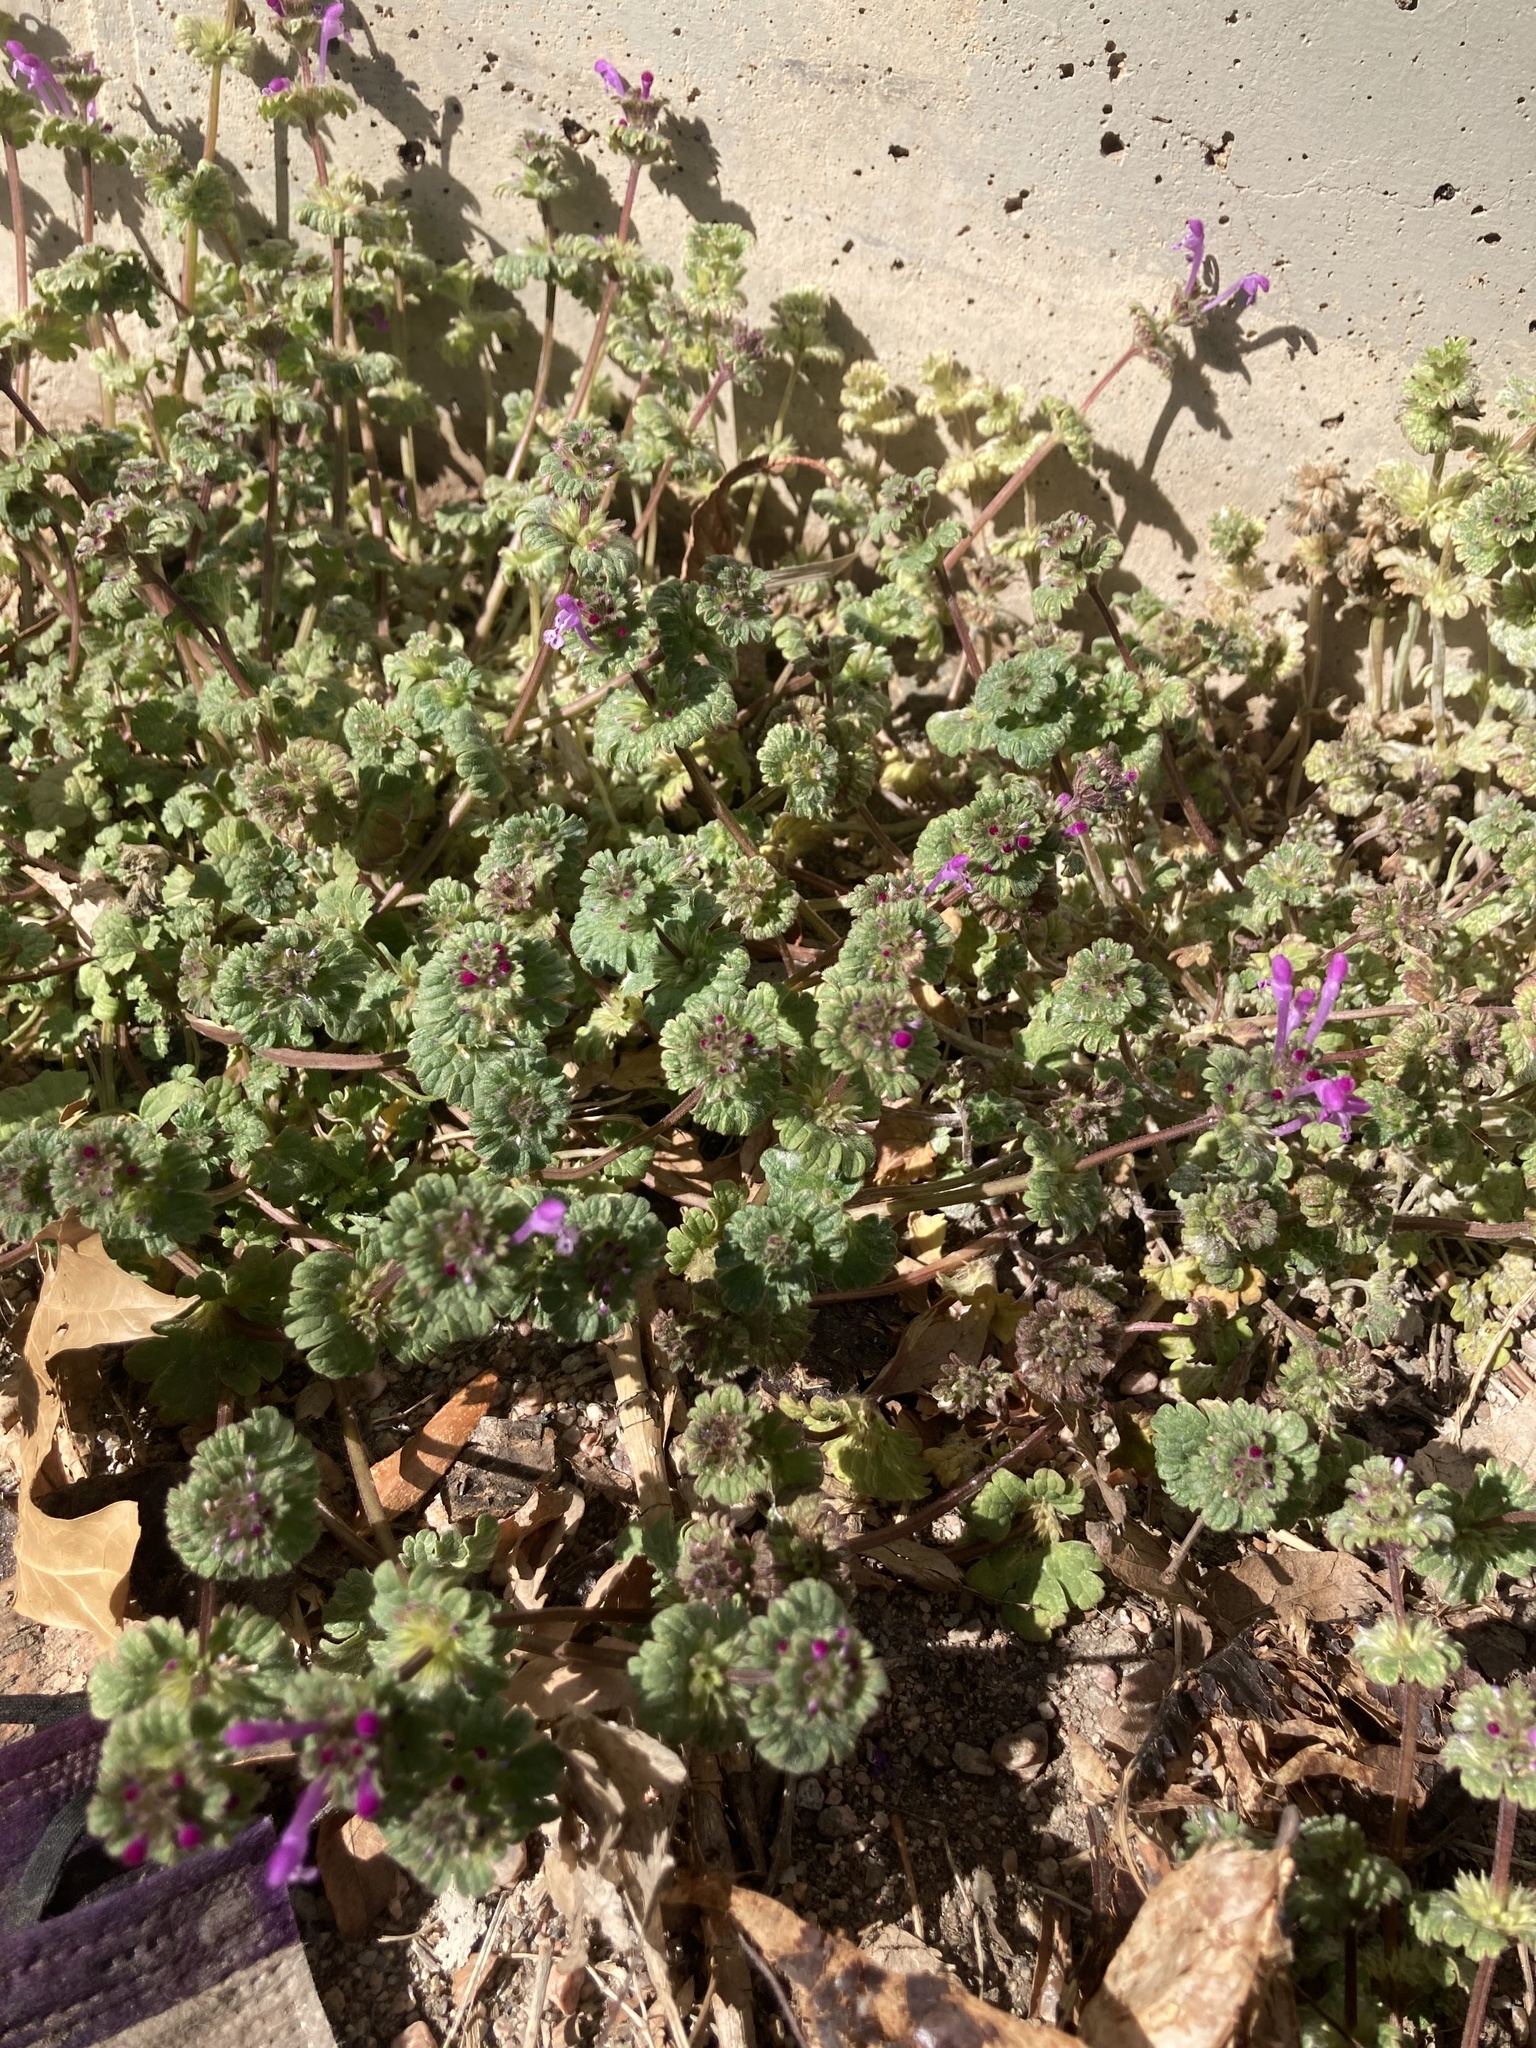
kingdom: Plantae
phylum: Tracheophyta
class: Magnoliopsida
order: Lamiales
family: Lamiaceae
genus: Lamium
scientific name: Lamium amplexicaule
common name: Henbit dead-nettle
